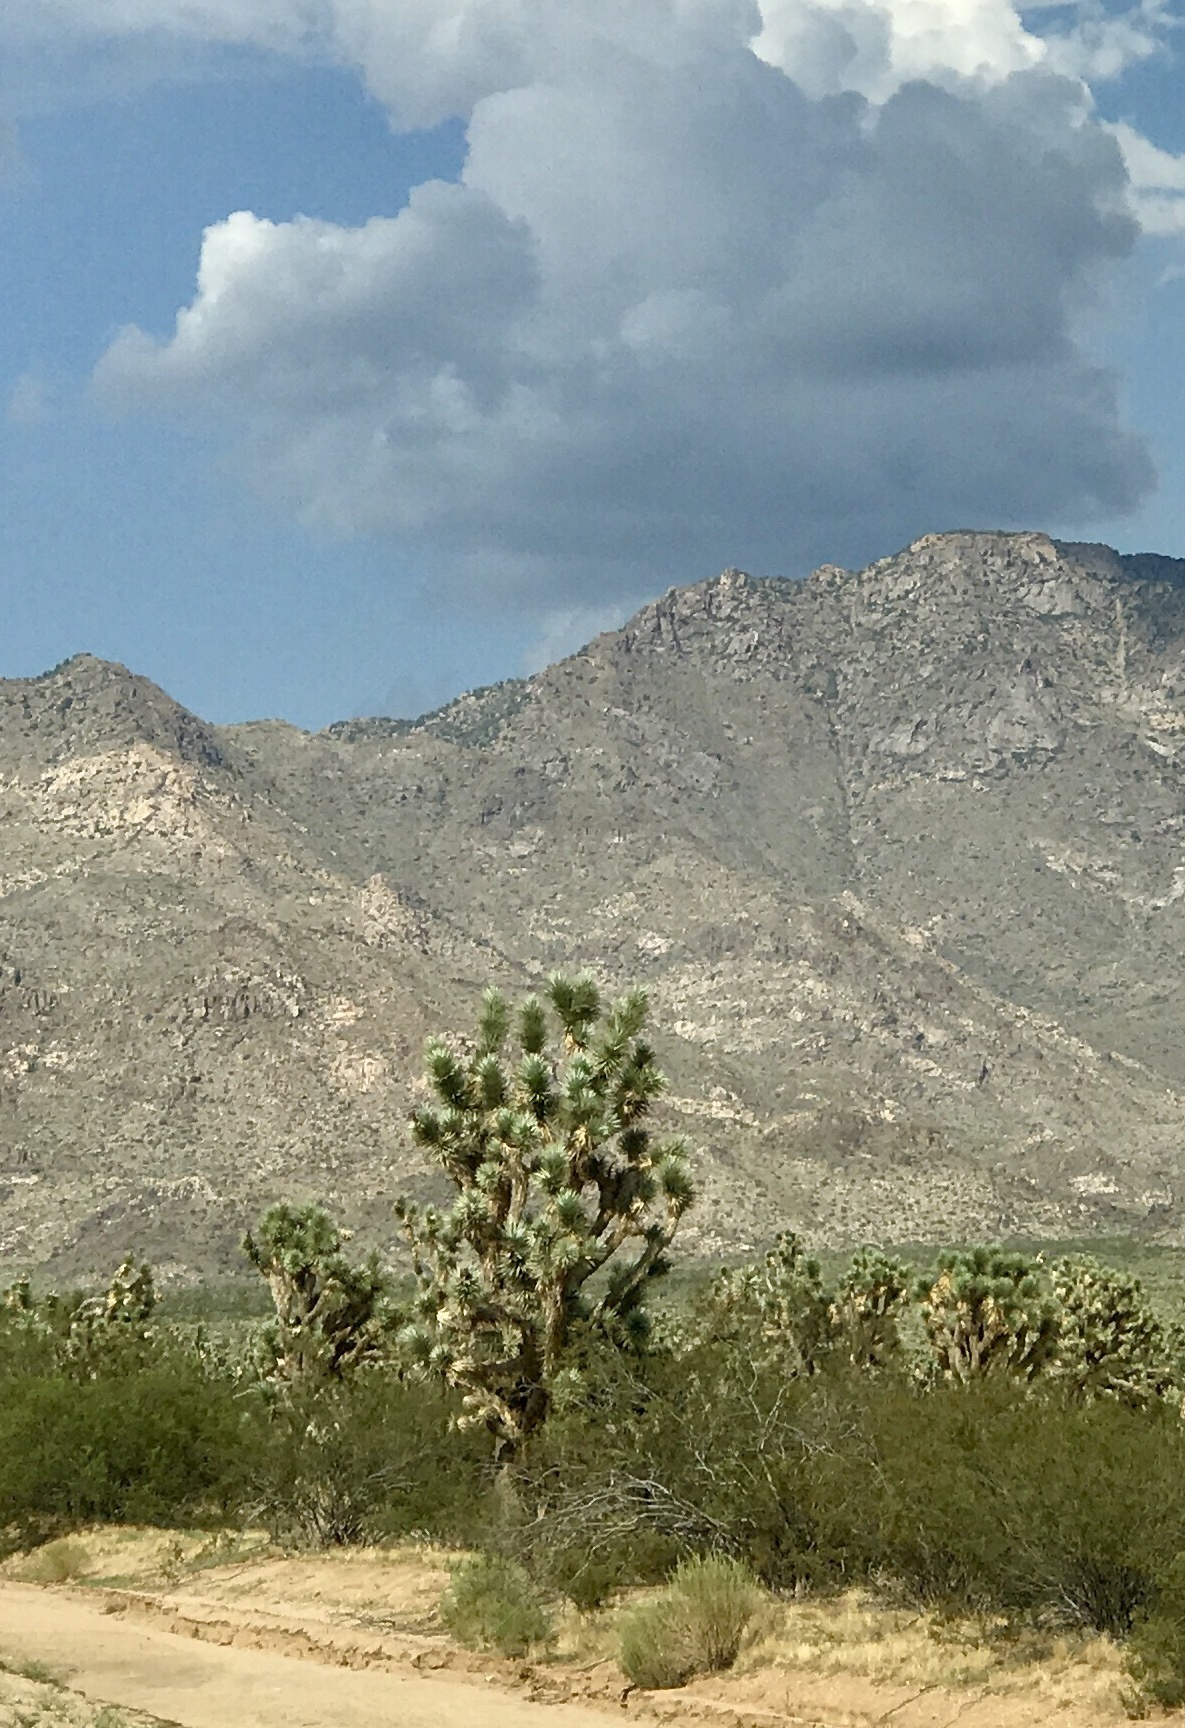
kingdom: Plantae
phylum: Tracheophyta
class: Liliopsida
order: Asparagales
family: Asparagaceae
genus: Yucca
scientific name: Yucca brevifolia
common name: Joshua tree
